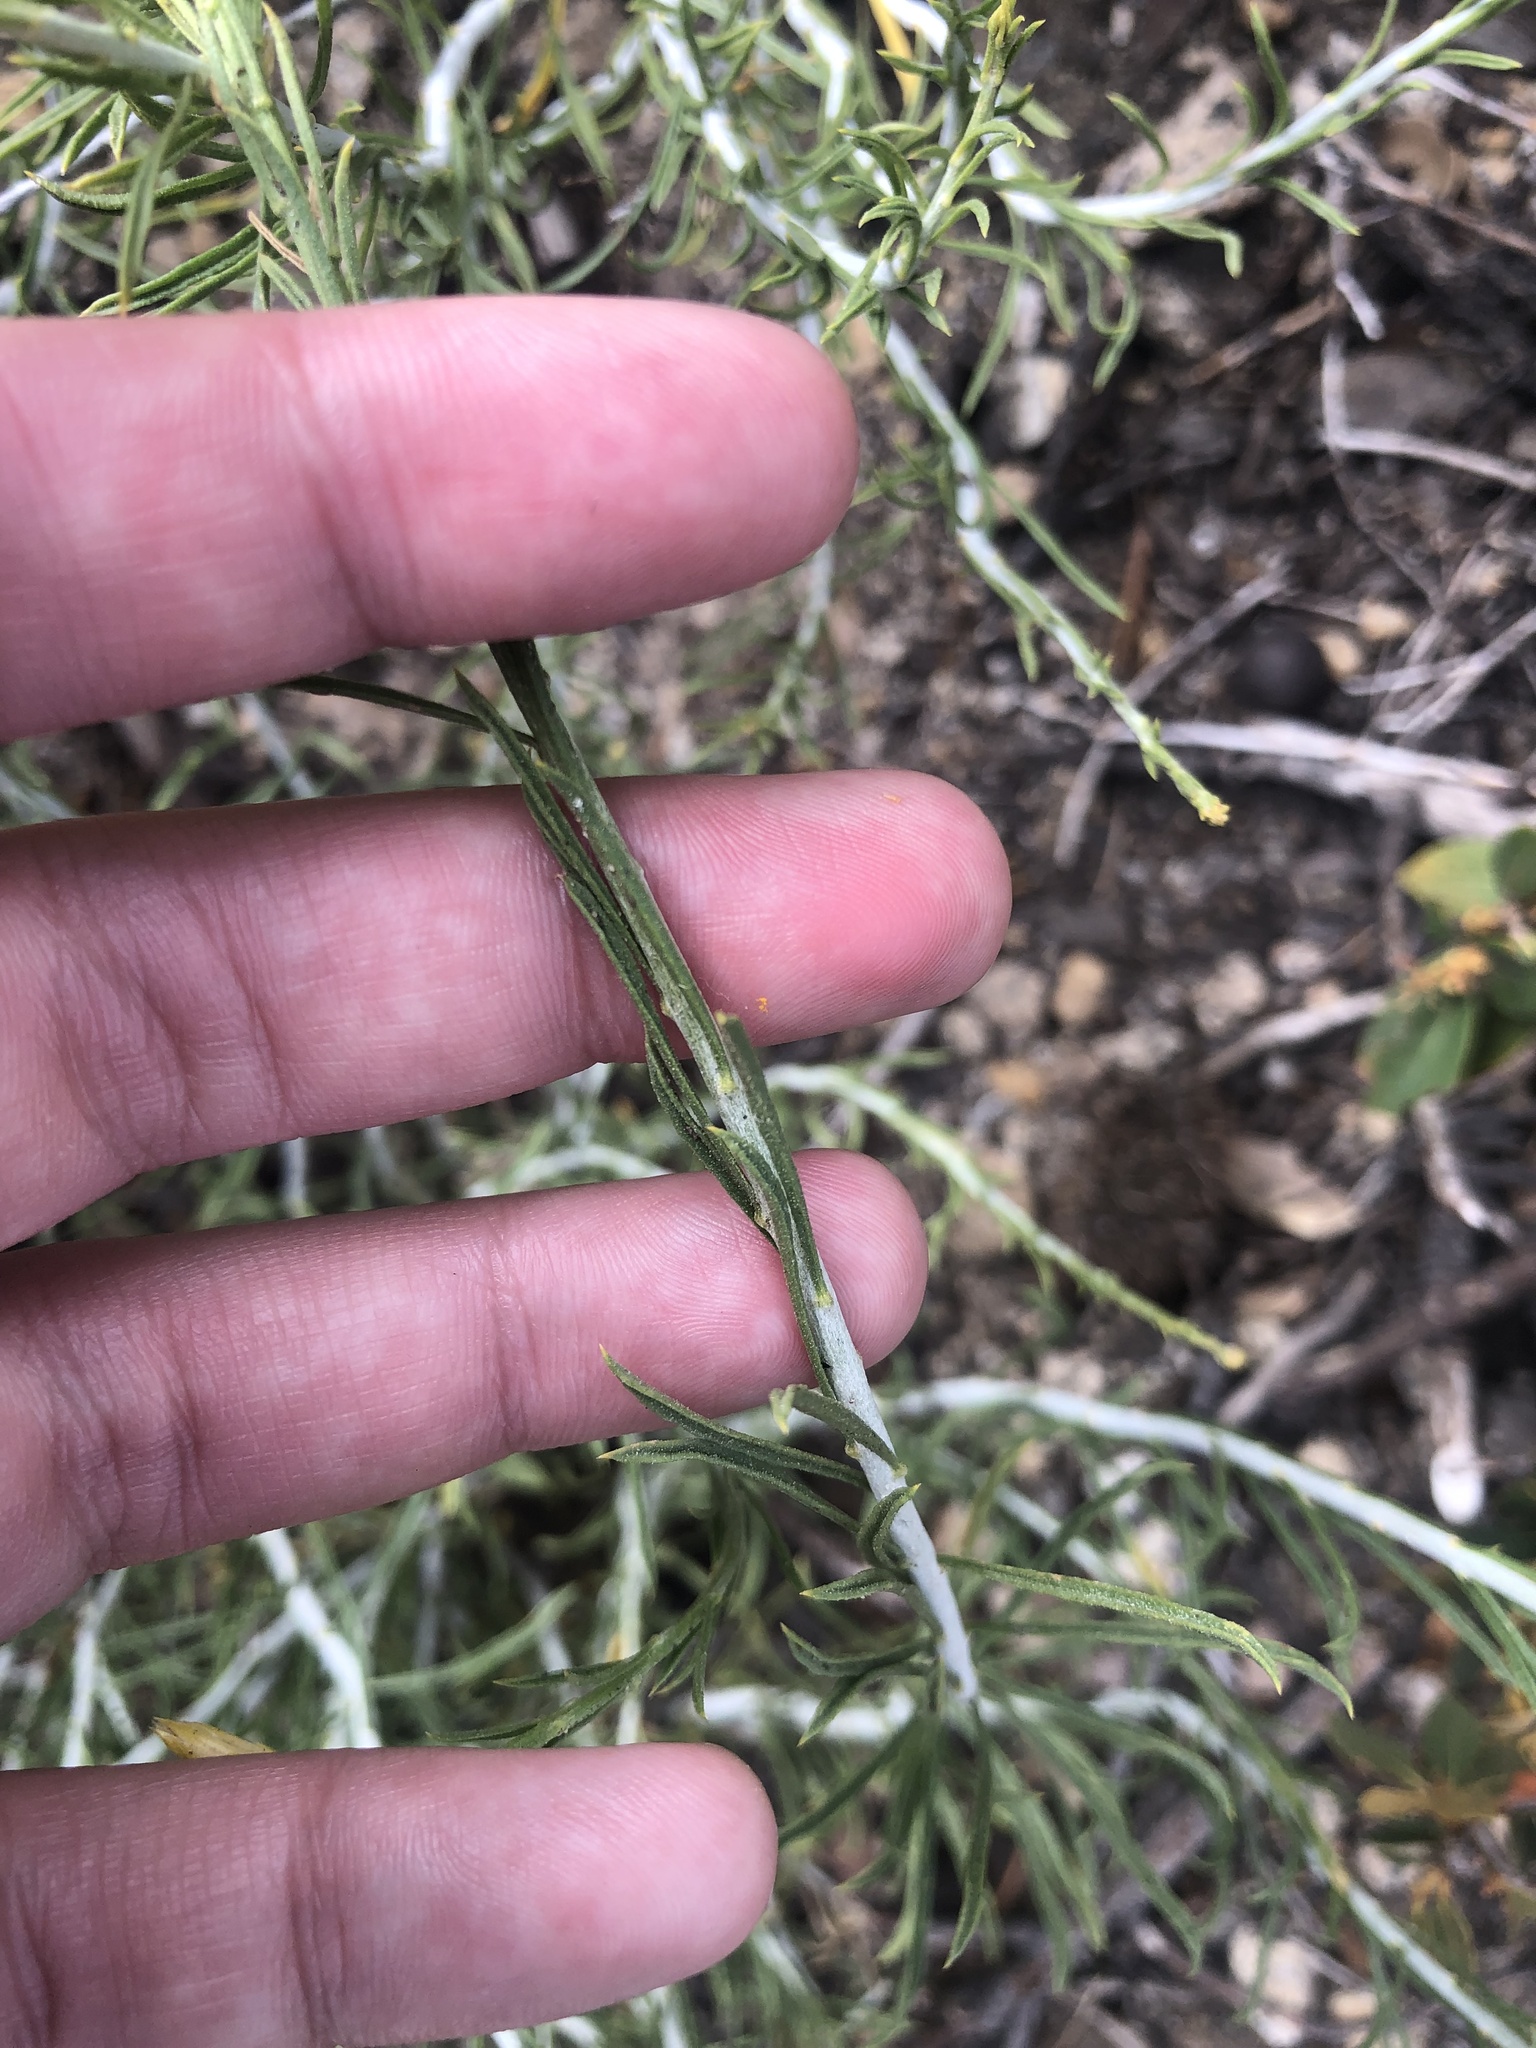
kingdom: Plantae
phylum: Tracheophyta
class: Magnoliopsida
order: Asterales
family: Asteraceae
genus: Ericameria
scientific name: Ericameria nauseosa
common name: Rubber rabbitbrush
